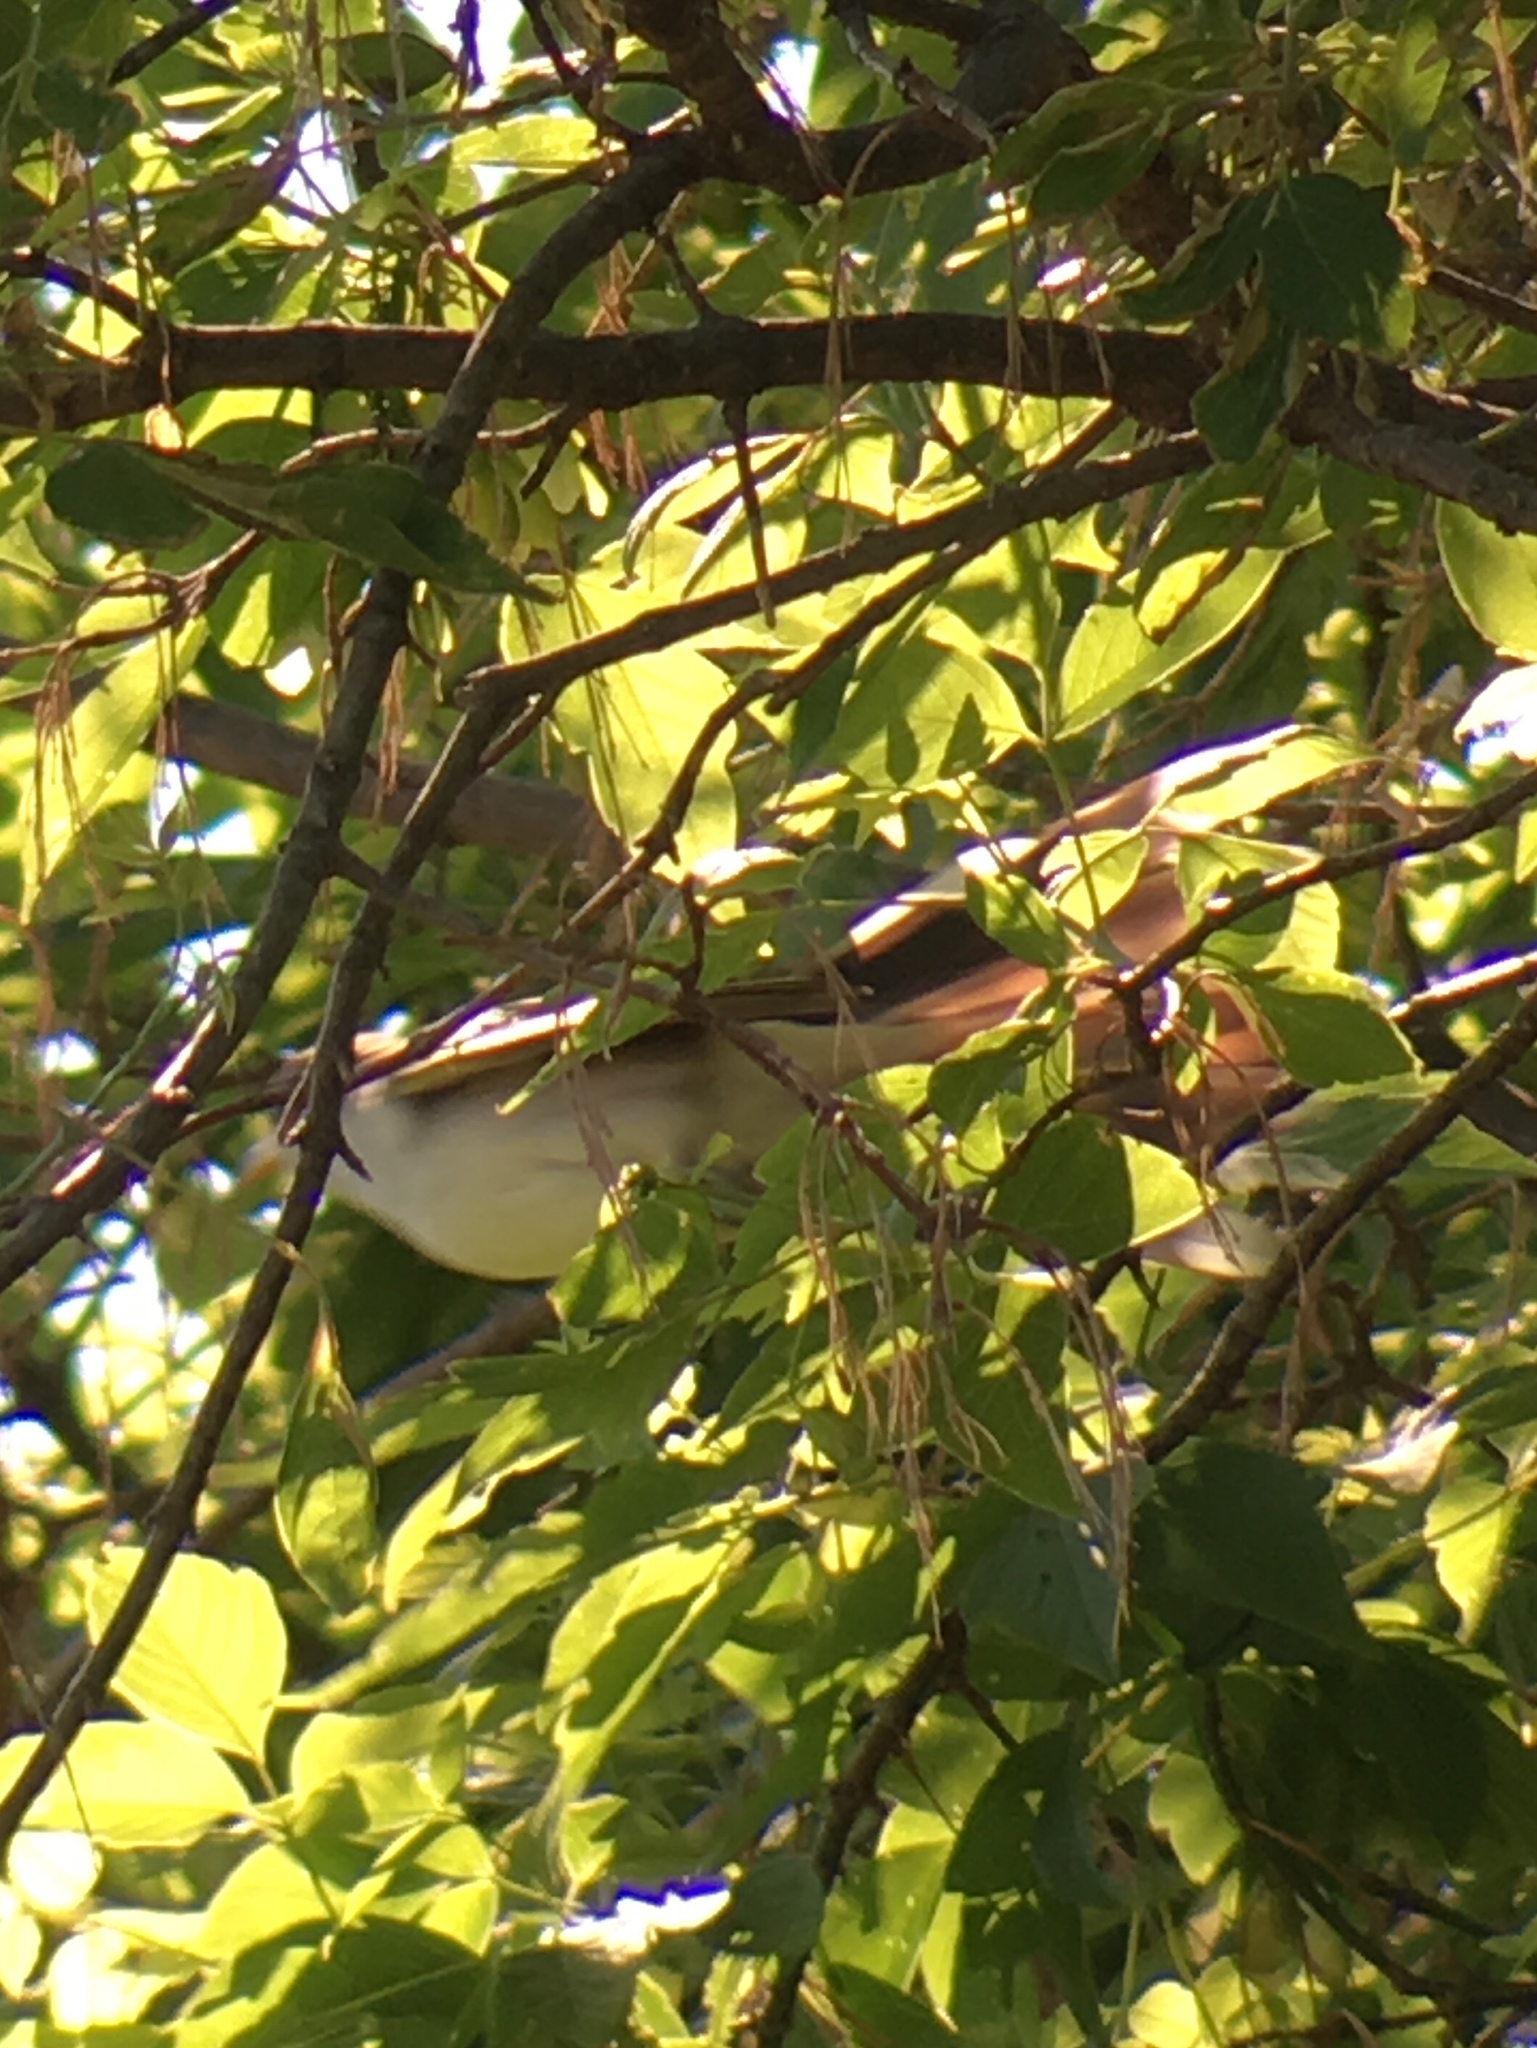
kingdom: Animalia
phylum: Chordata
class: Aves
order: Cuculiformes
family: Cuculidae
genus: Coccyzus
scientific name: Coccyzus americanus
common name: Yellow-billed cuckoo
